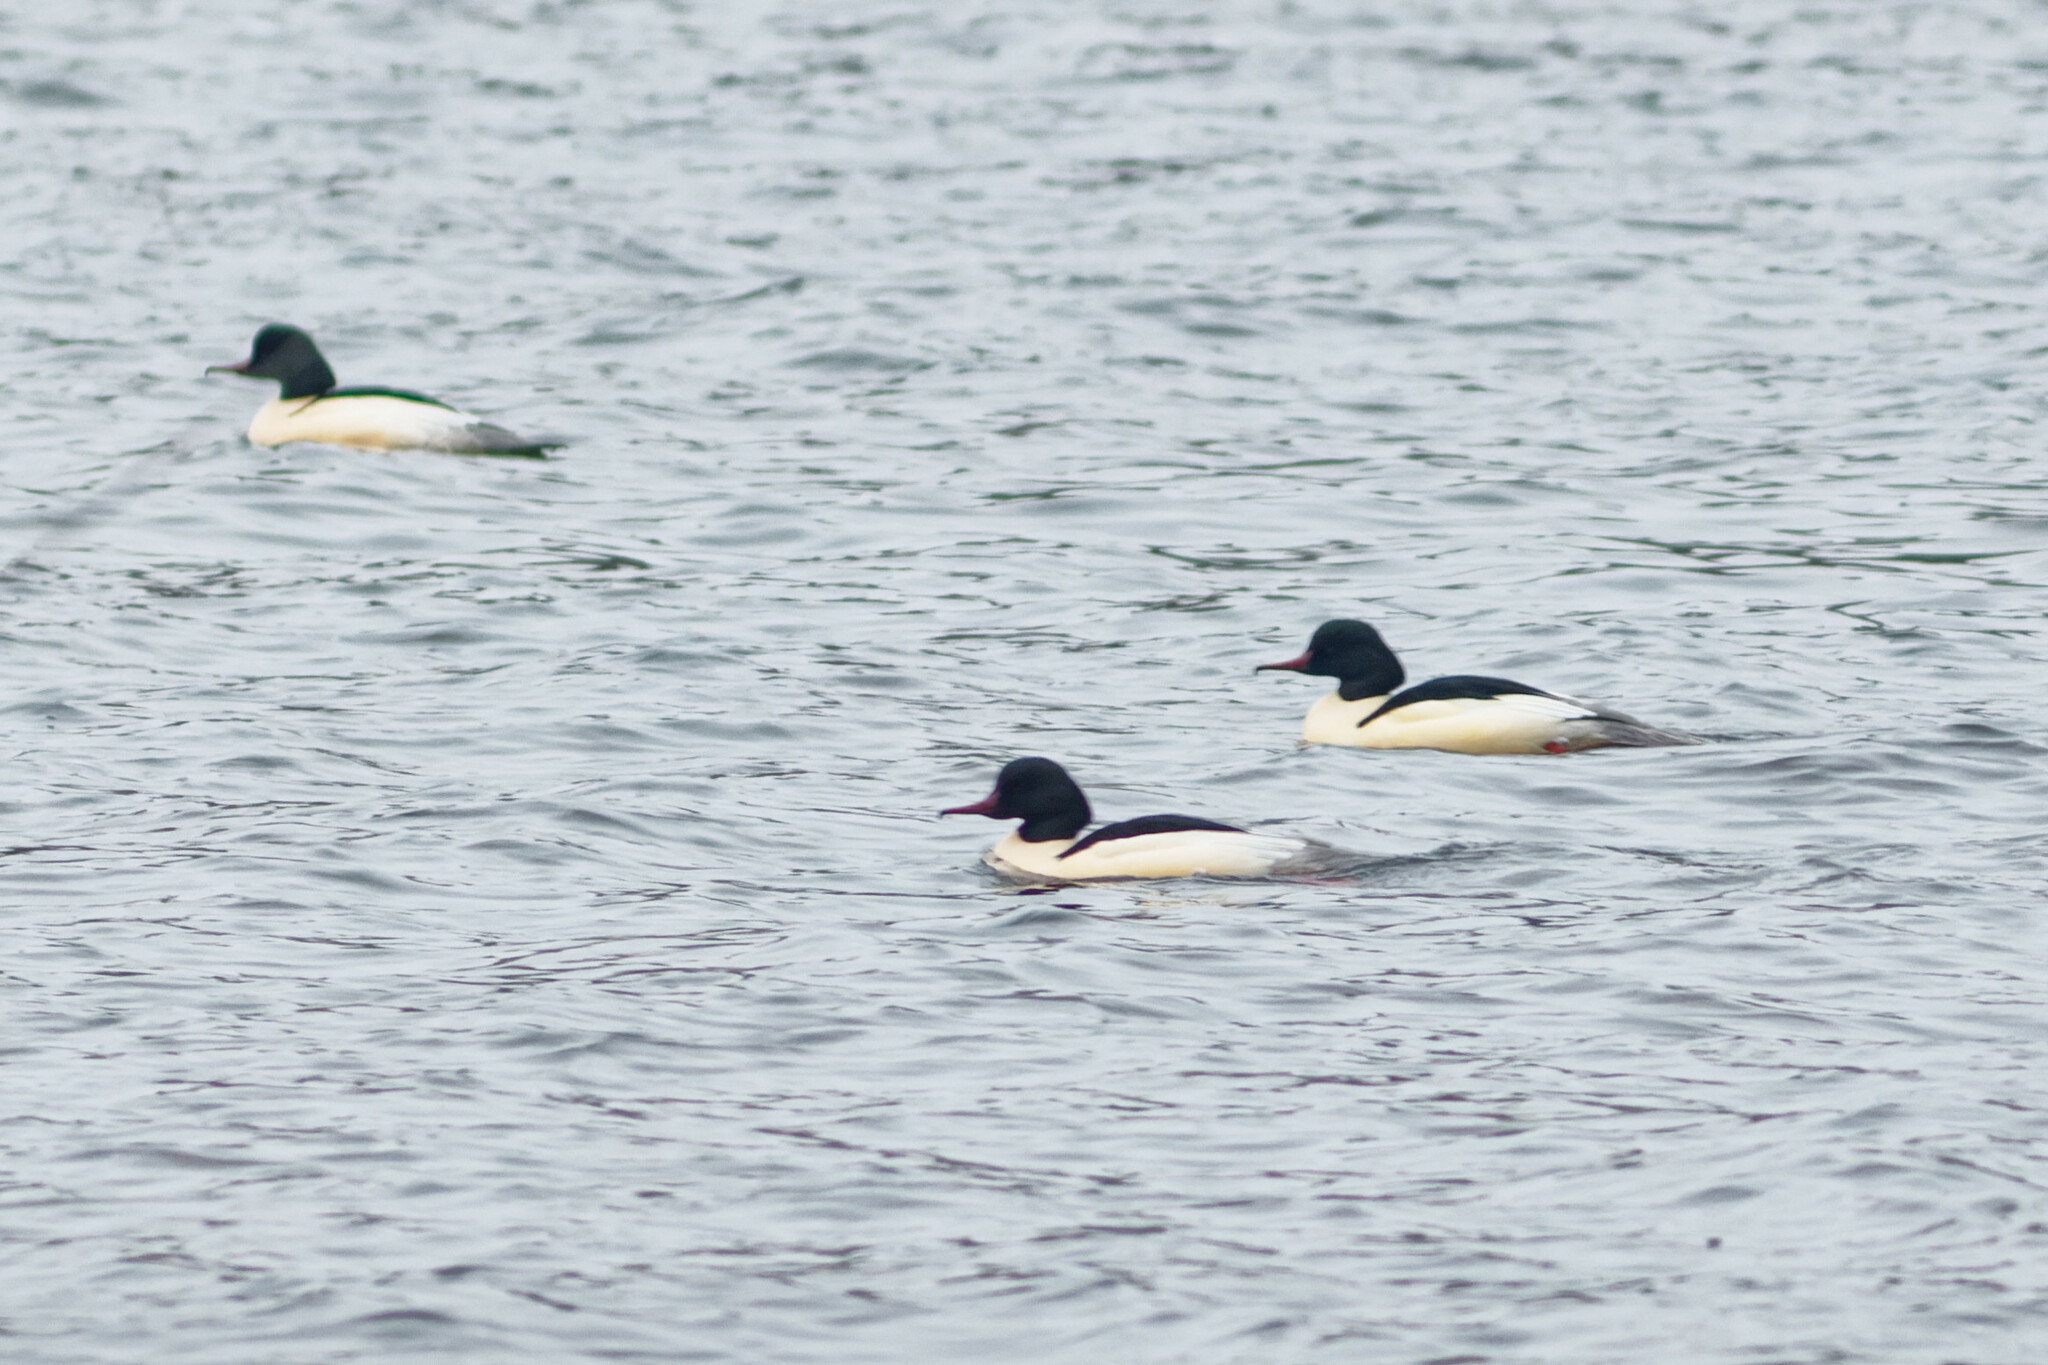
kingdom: Animalia
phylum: Chordata
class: Aves
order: Anseriformes
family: Anatidae
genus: Mergus
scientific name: Mergus merganser
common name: Common merganser
